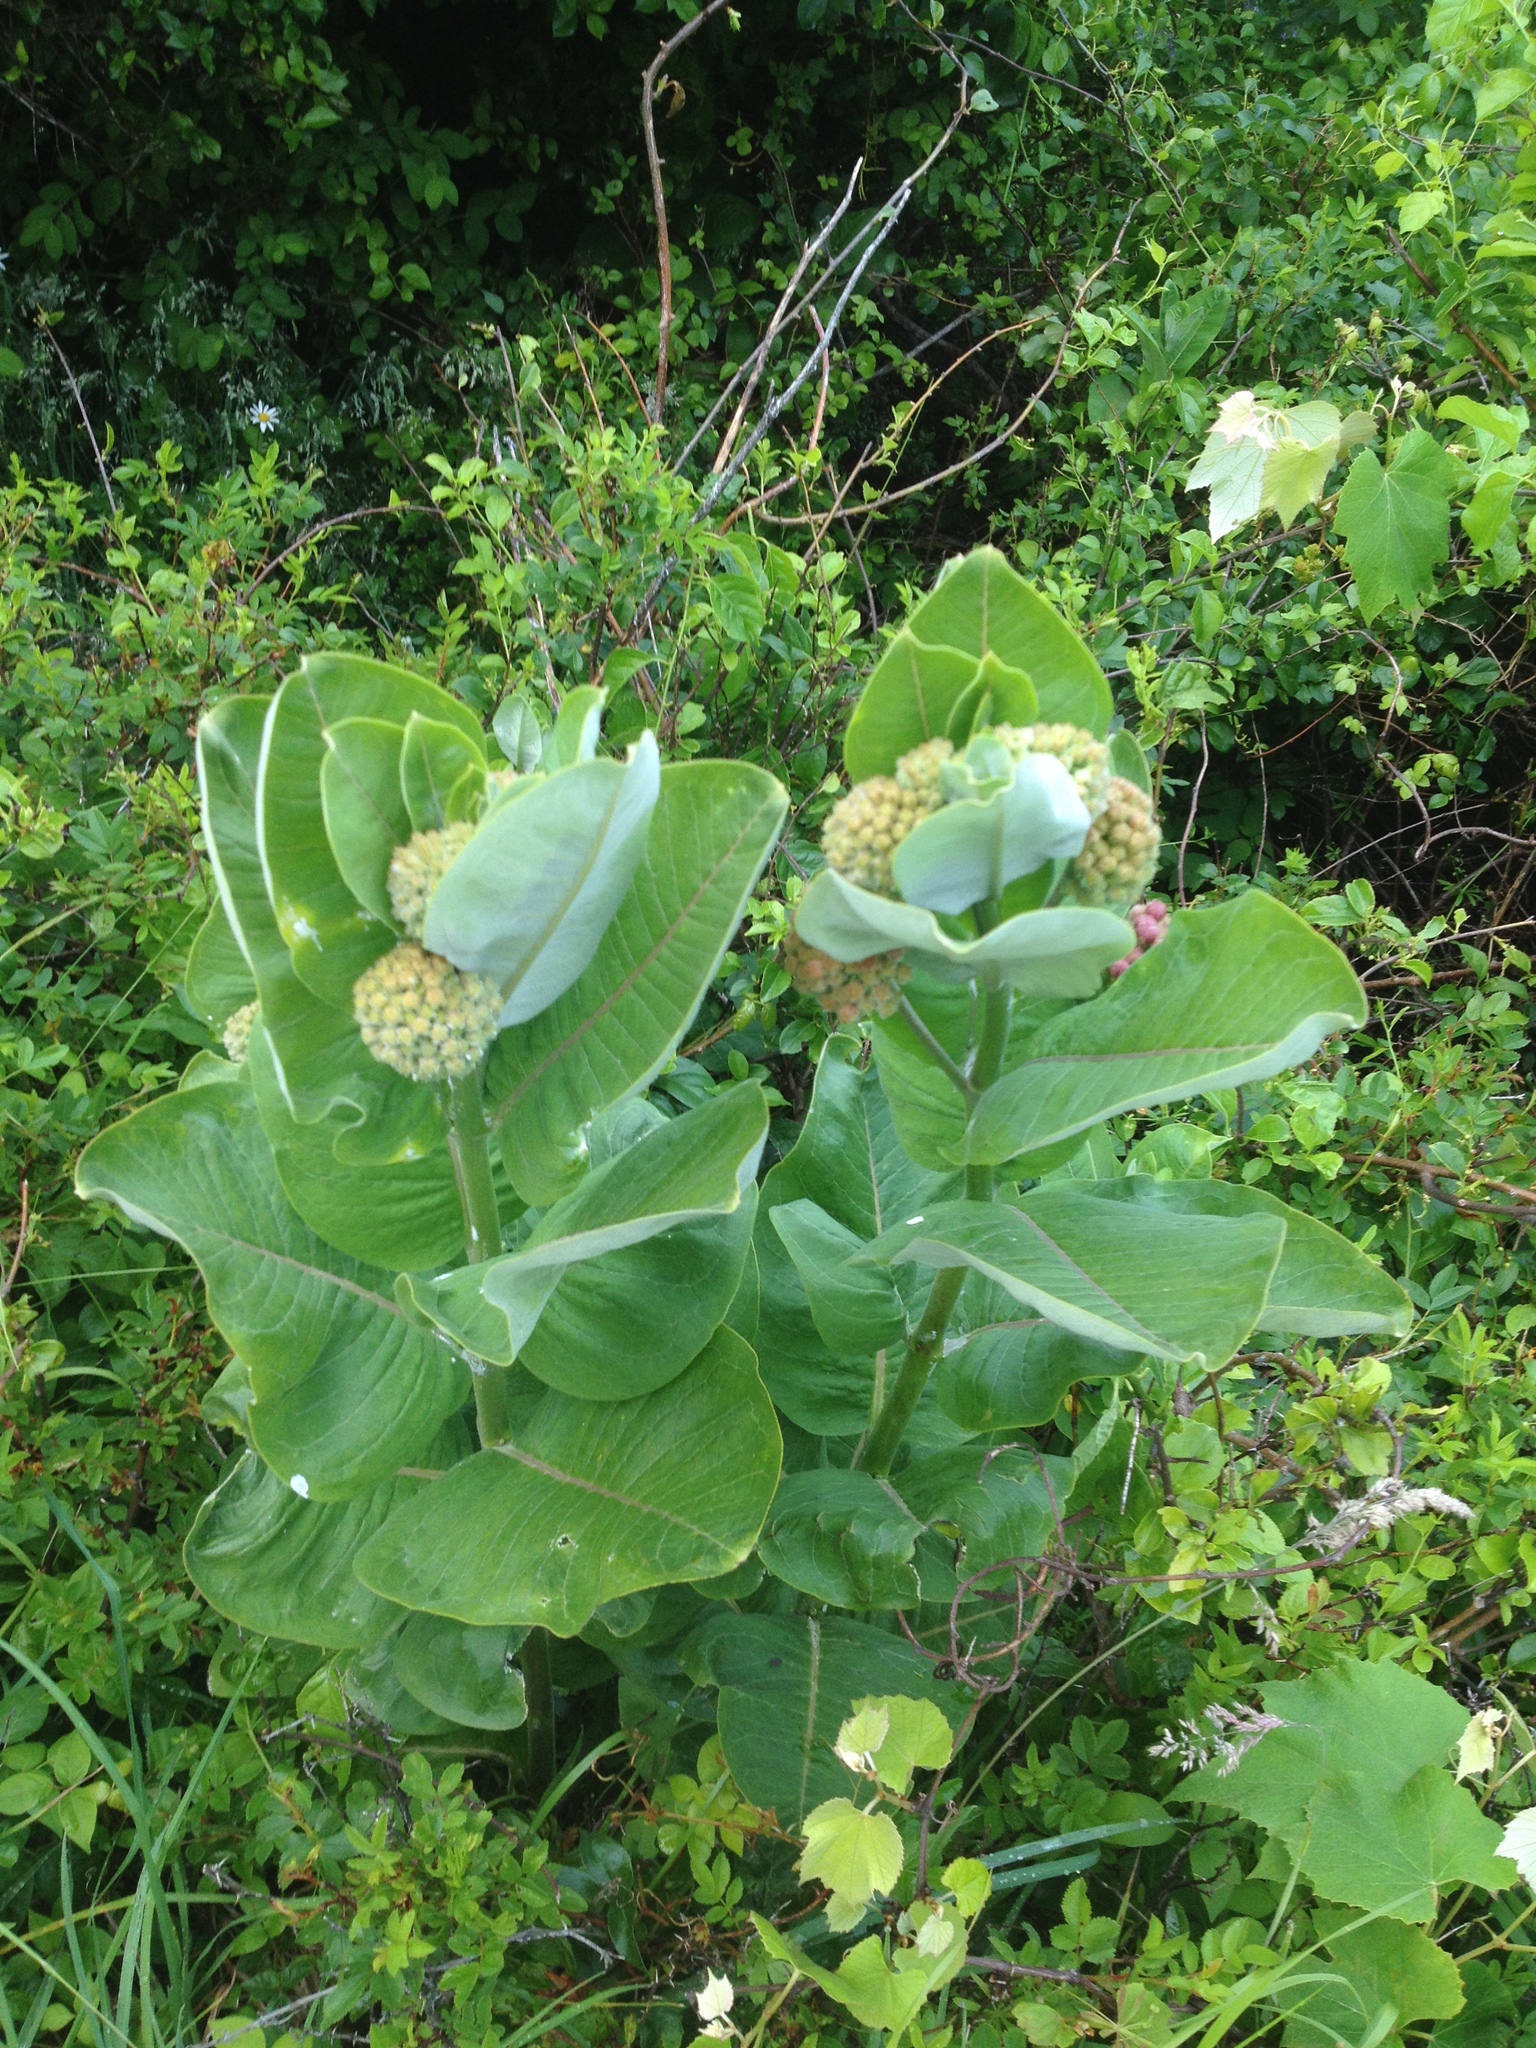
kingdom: Plantae
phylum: Tracheophyta
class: Magnoliopsida
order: Gentianales
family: Apocynaceae
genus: Asclepias
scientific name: Asclepias syriaca
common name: Common milkweed
